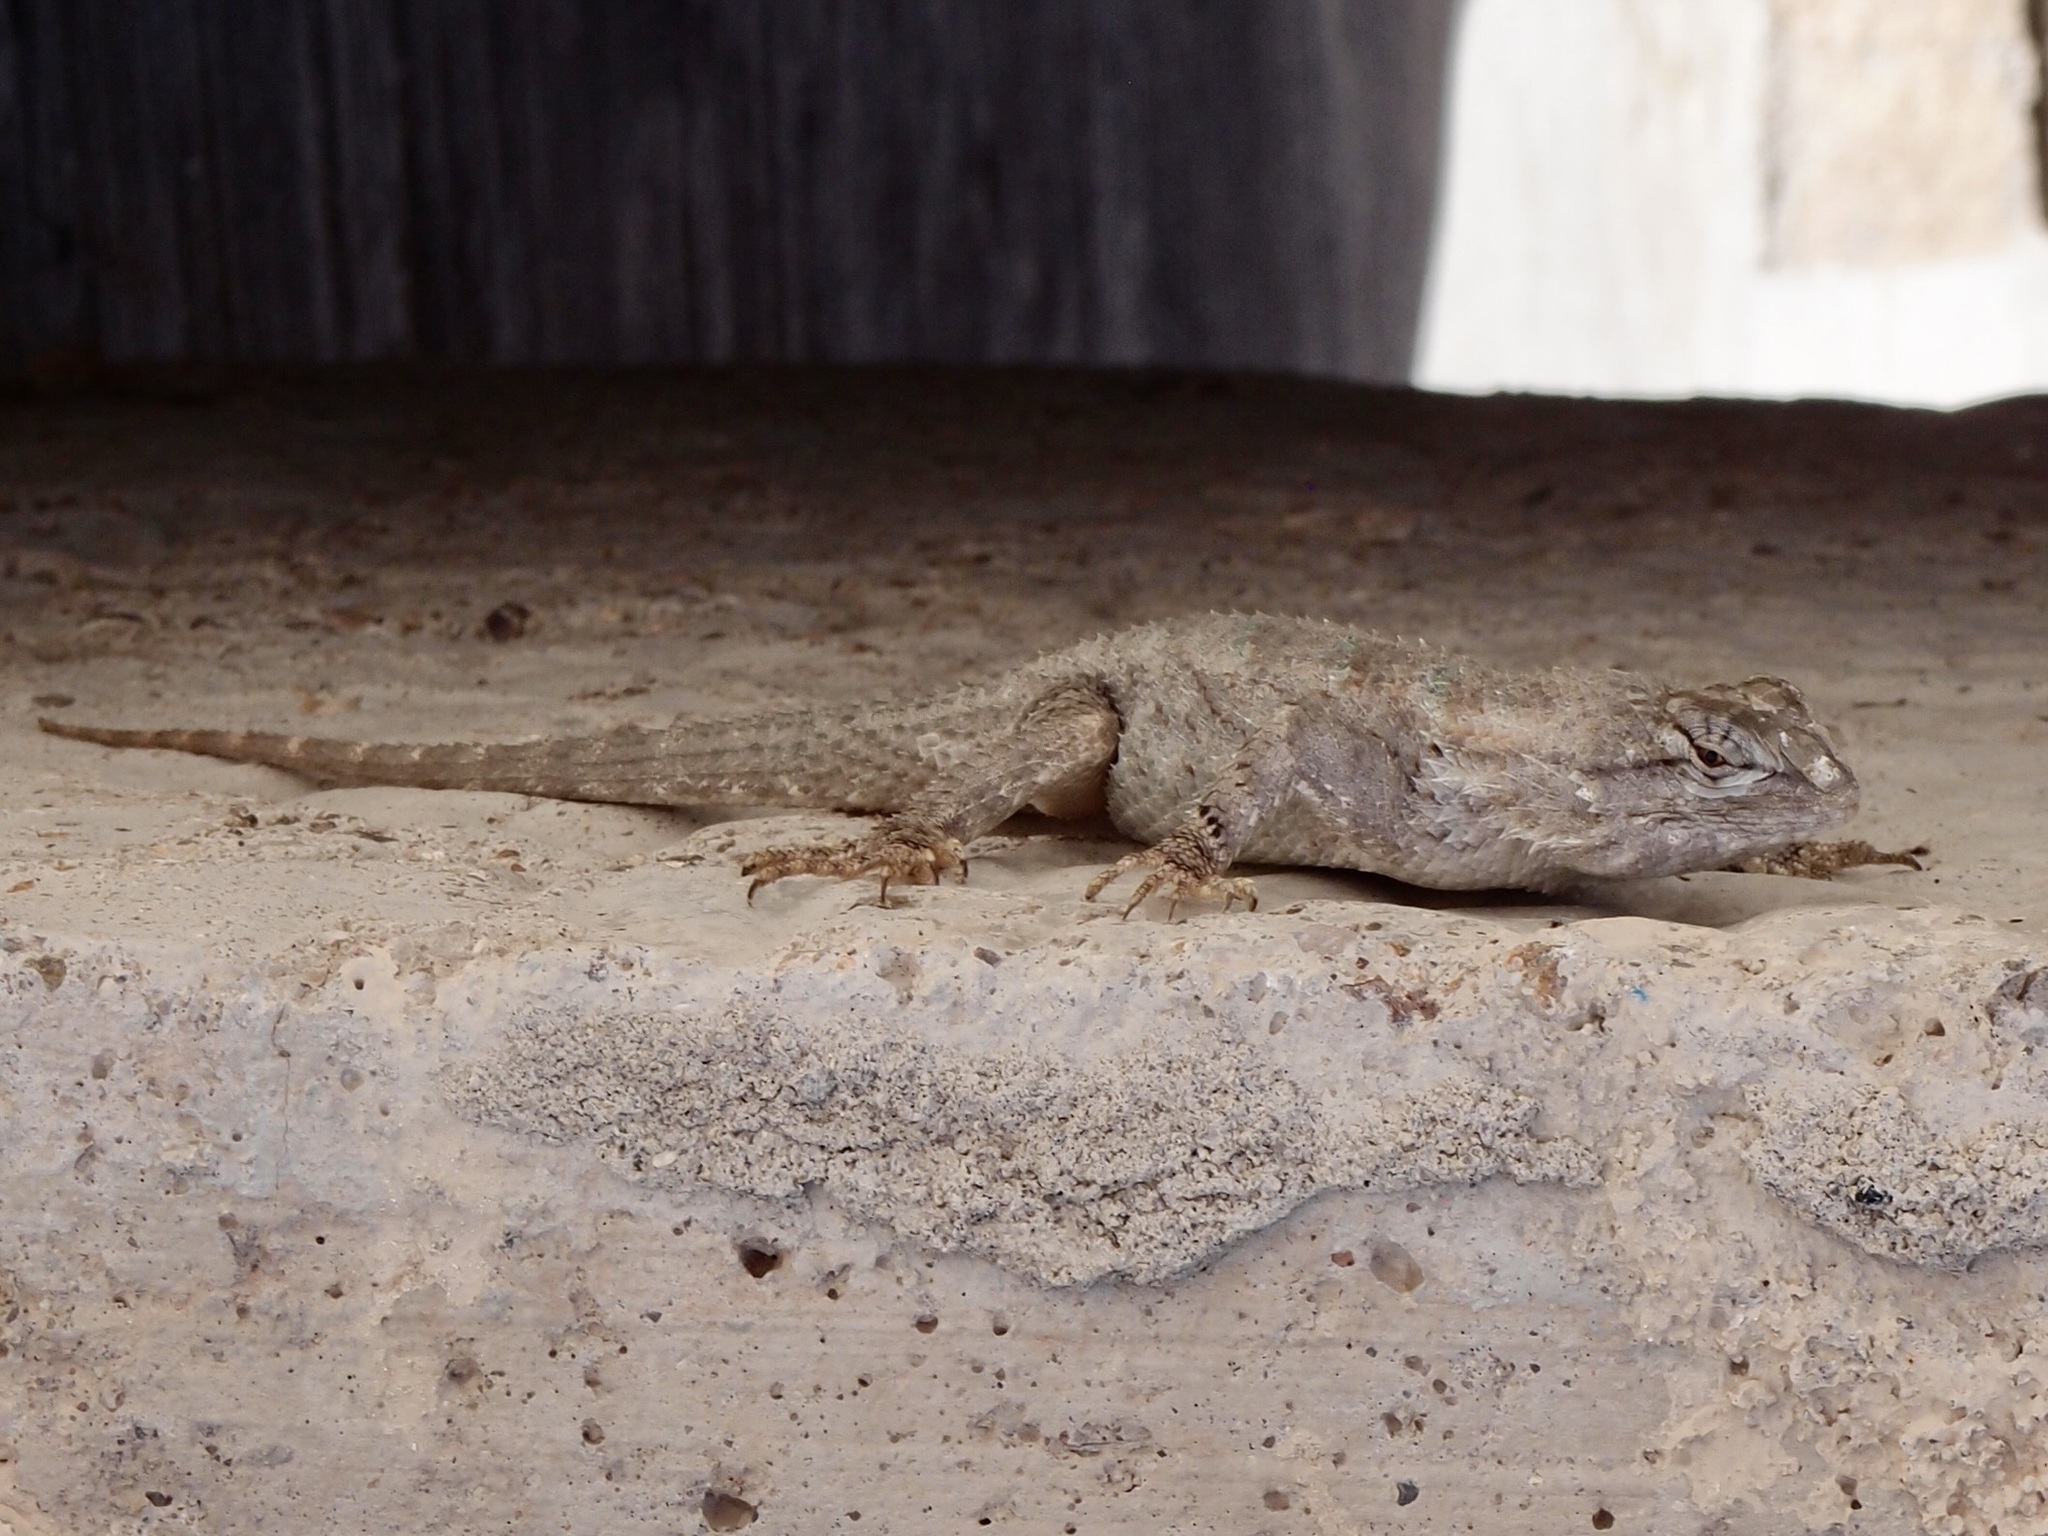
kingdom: Animalia
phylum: Chordata
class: Squamata
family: Phrynosomatidae
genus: Sceloporus
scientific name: Sceloporus clarkii
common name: Clark's spiny lizard
